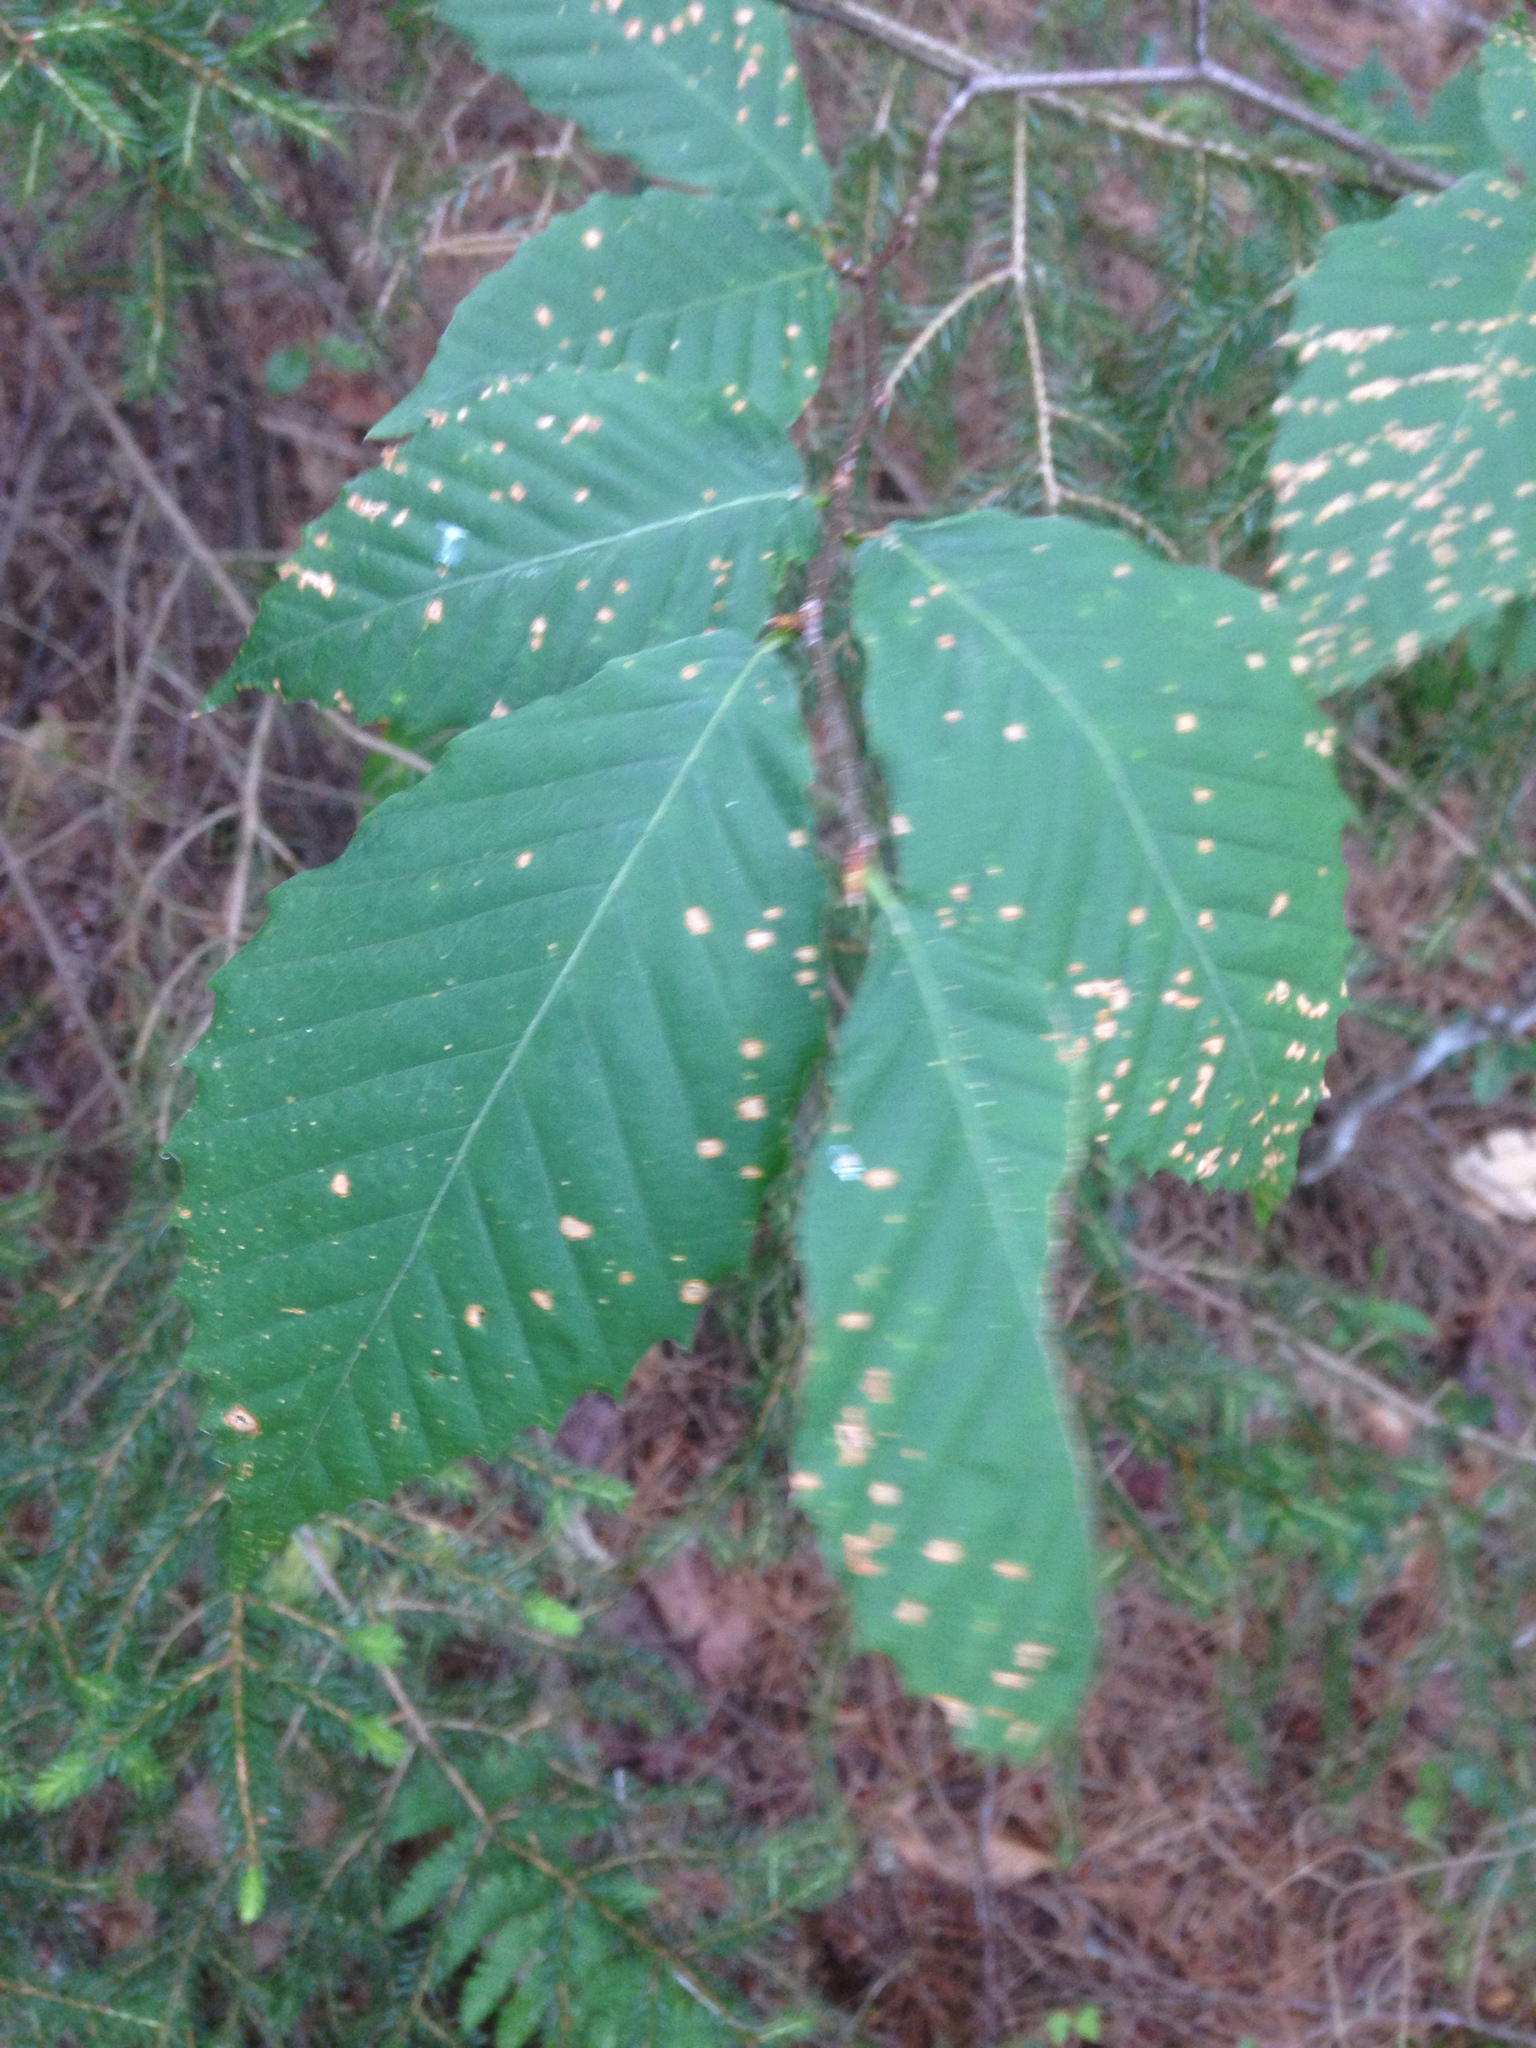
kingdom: Plantae
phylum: Tracheophyta
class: Magnoliopsida
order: Fagales
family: Fagaceae
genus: Fagus
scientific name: Fagus grandifolia
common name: American beech
